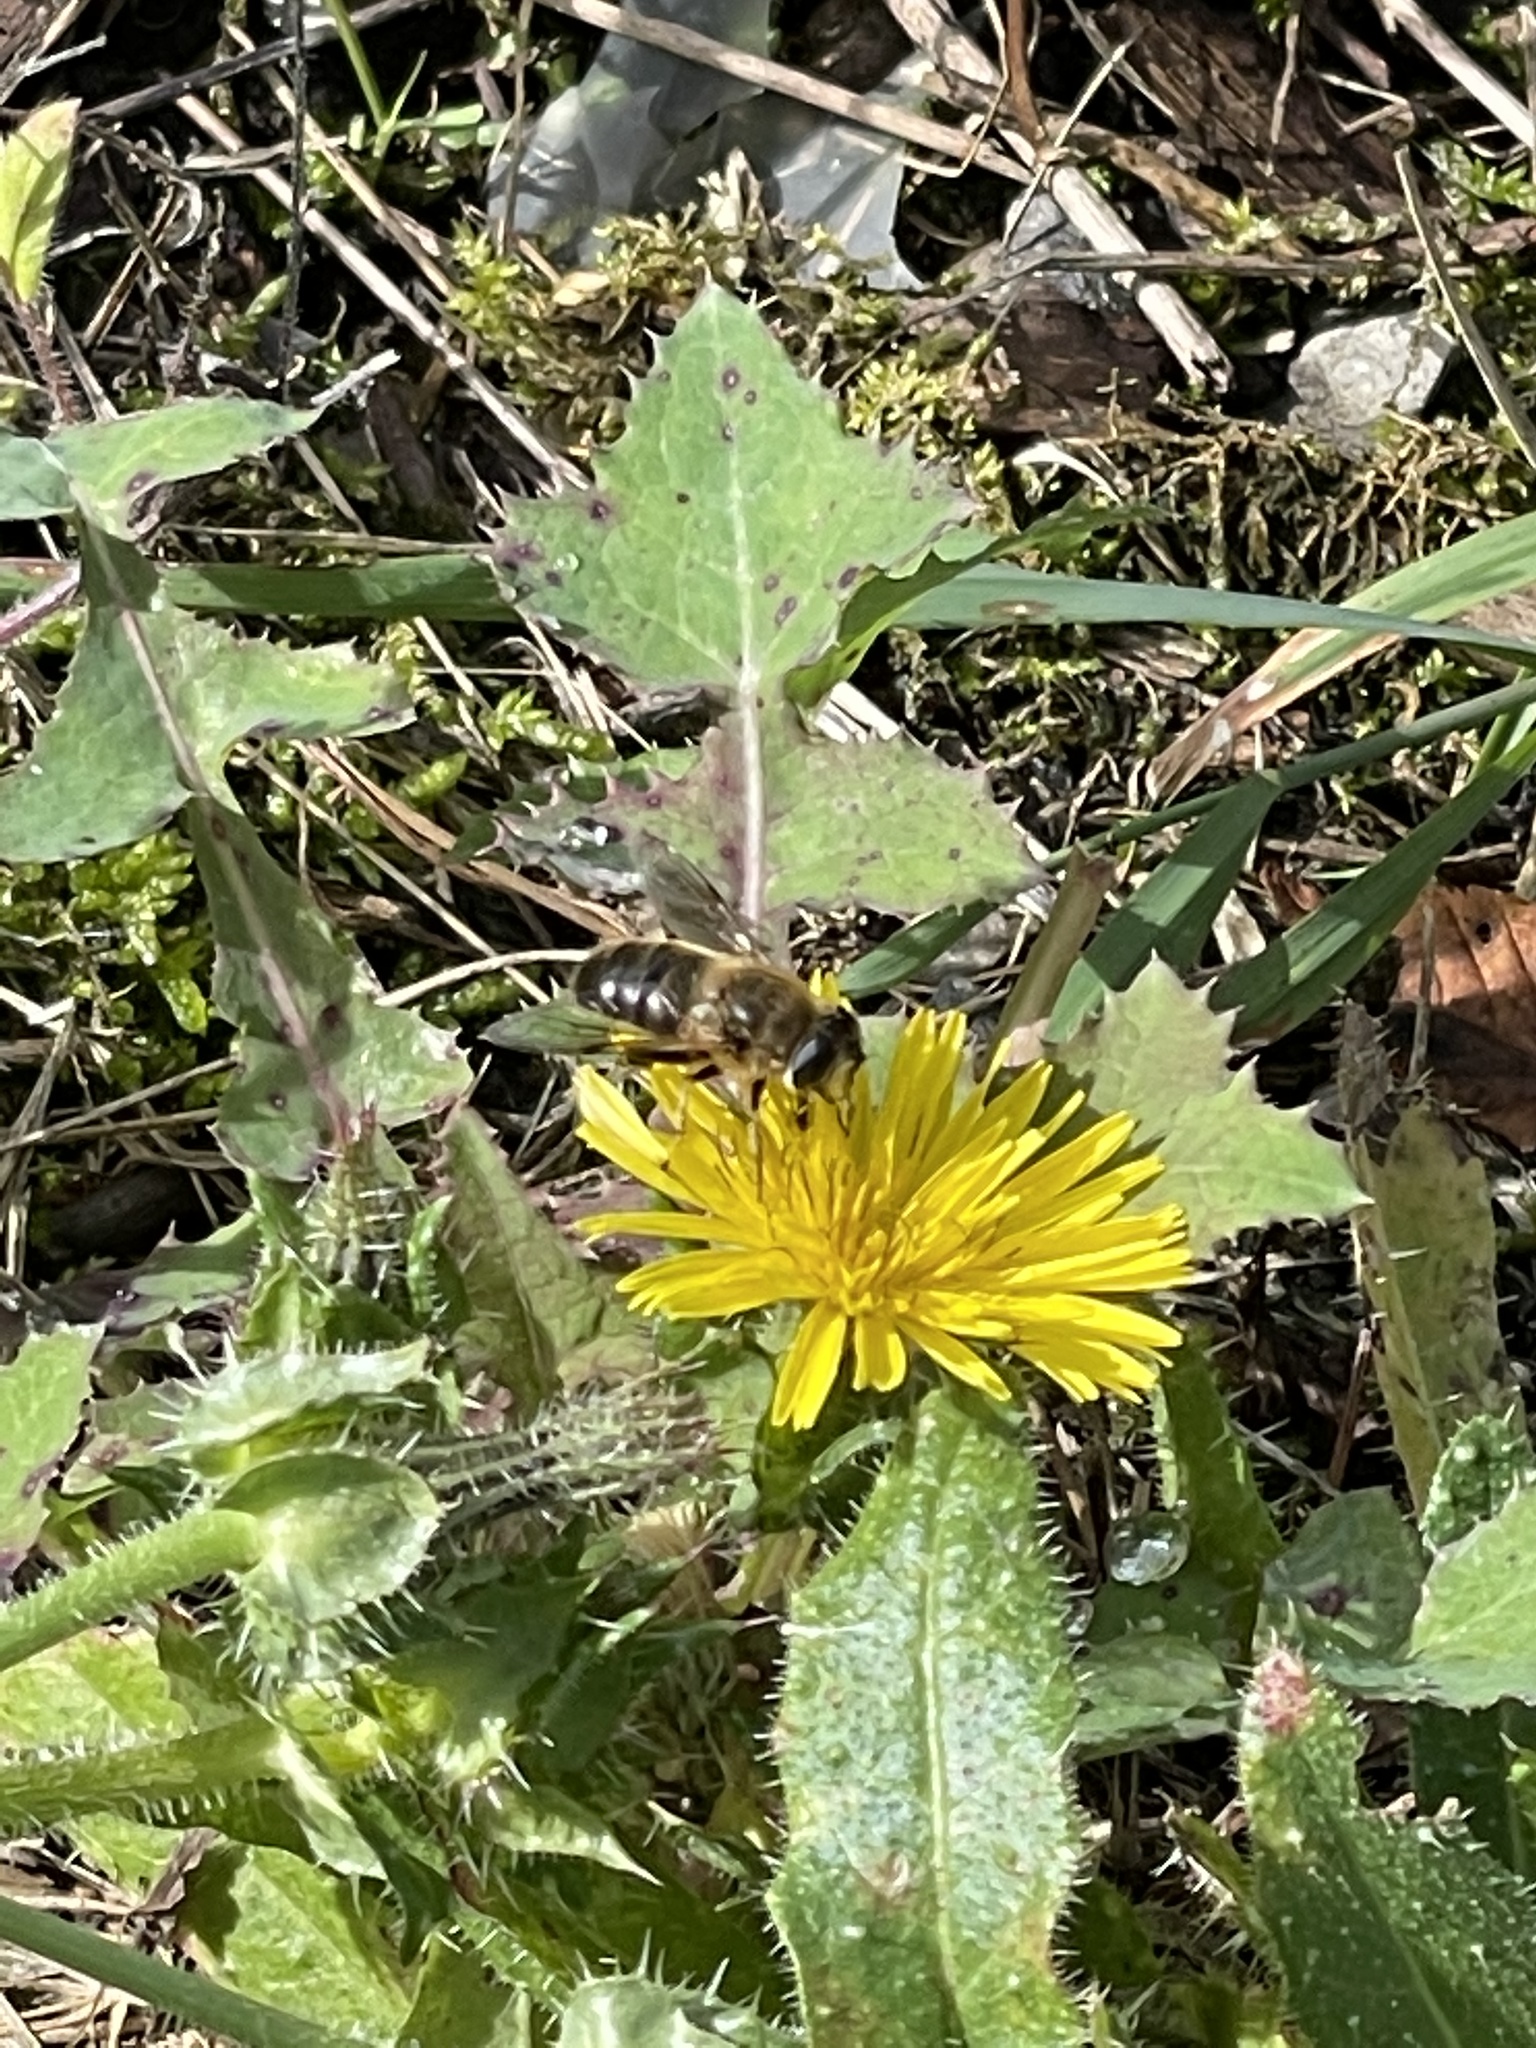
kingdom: Animalia
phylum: Arthropoda
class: Insecta
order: Diptera
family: Syrphidae
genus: Eristalis
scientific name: Eristalis tenax
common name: Drone fly
